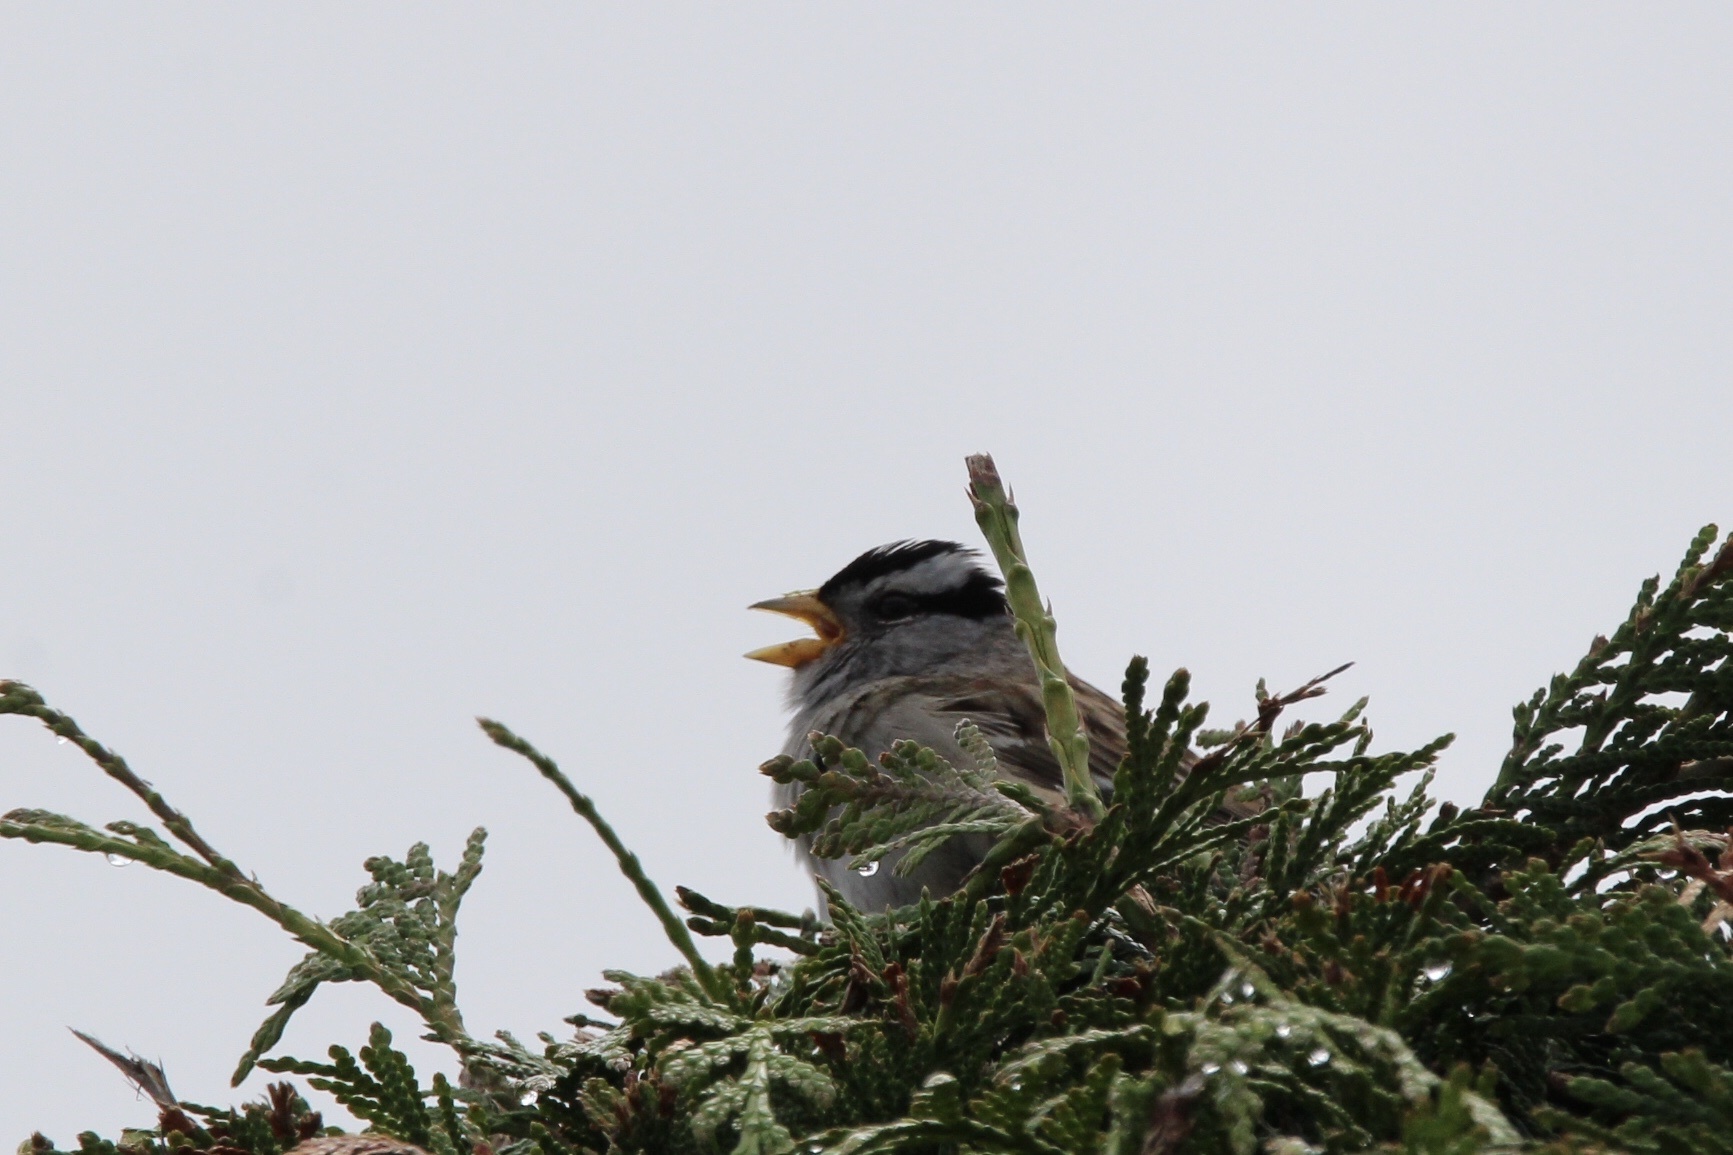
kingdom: Animalia
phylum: Chordata
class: Aves
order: Passeriformes
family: Passerellidae
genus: Zonotrichia
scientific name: Zonotrichia leucophrys
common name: White-crowned sparrow
